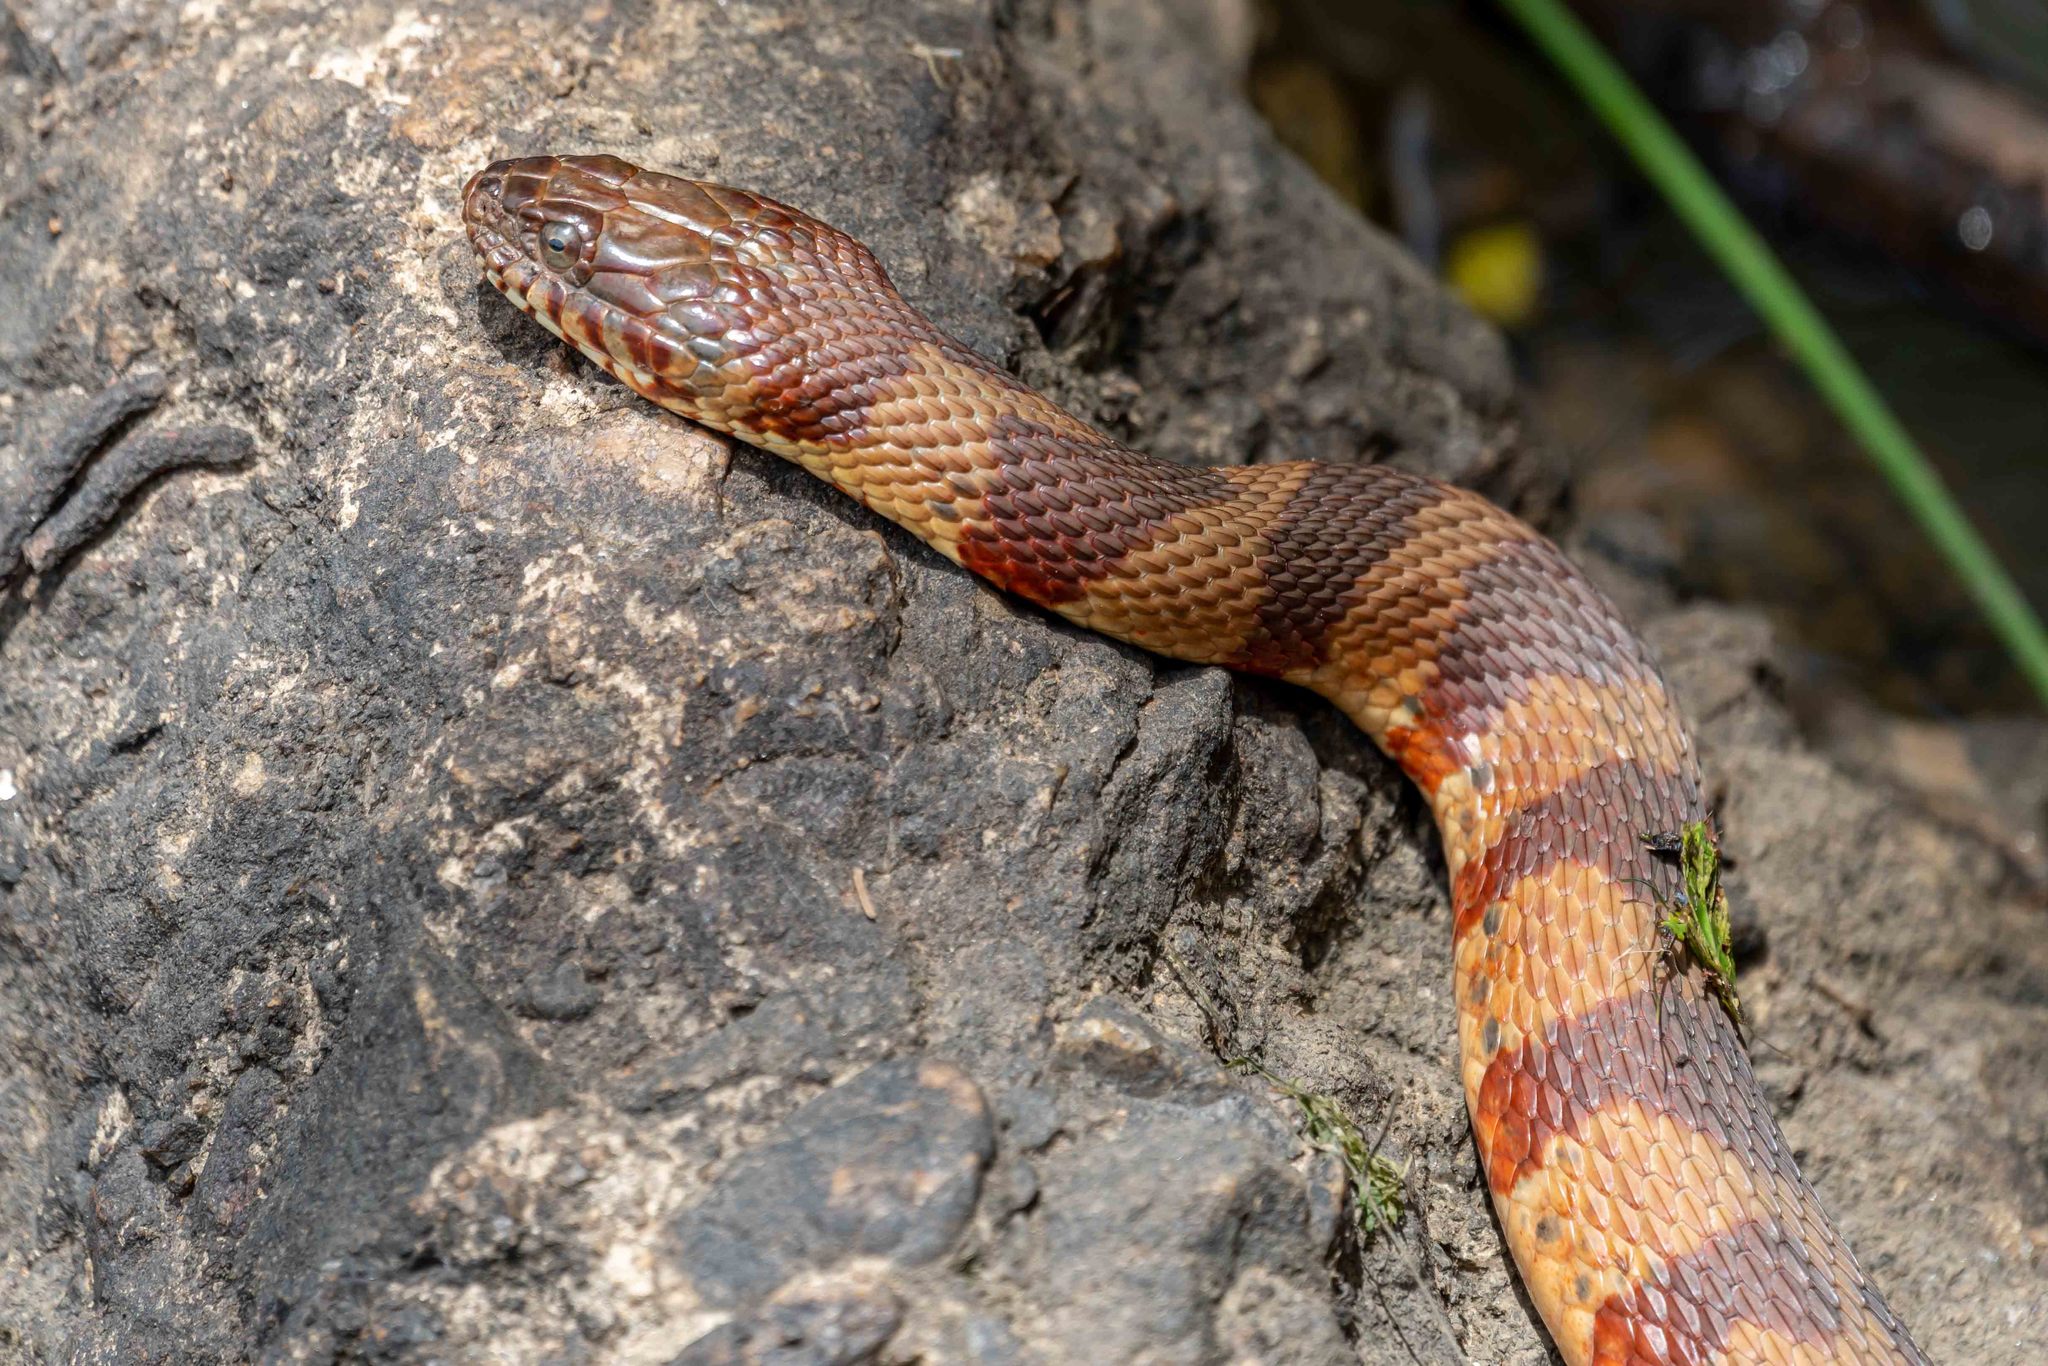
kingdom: Animalia
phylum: Chordata
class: Squamata
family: Colubridae
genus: Nerodia
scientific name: Nerodia sipedon
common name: Northern water snake
